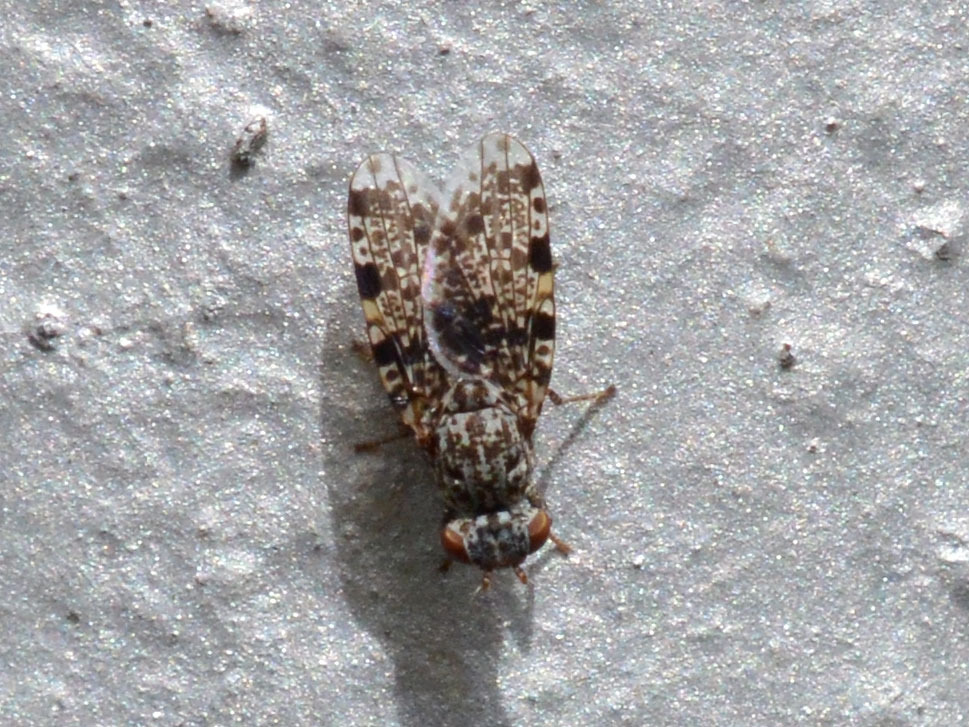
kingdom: Animalia
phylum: Arthropoda
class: Insecta
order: Diptera
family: Ulidiidae
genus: Callopistromyia
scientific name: Callopistromyia annulipes
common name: Peacock fly
